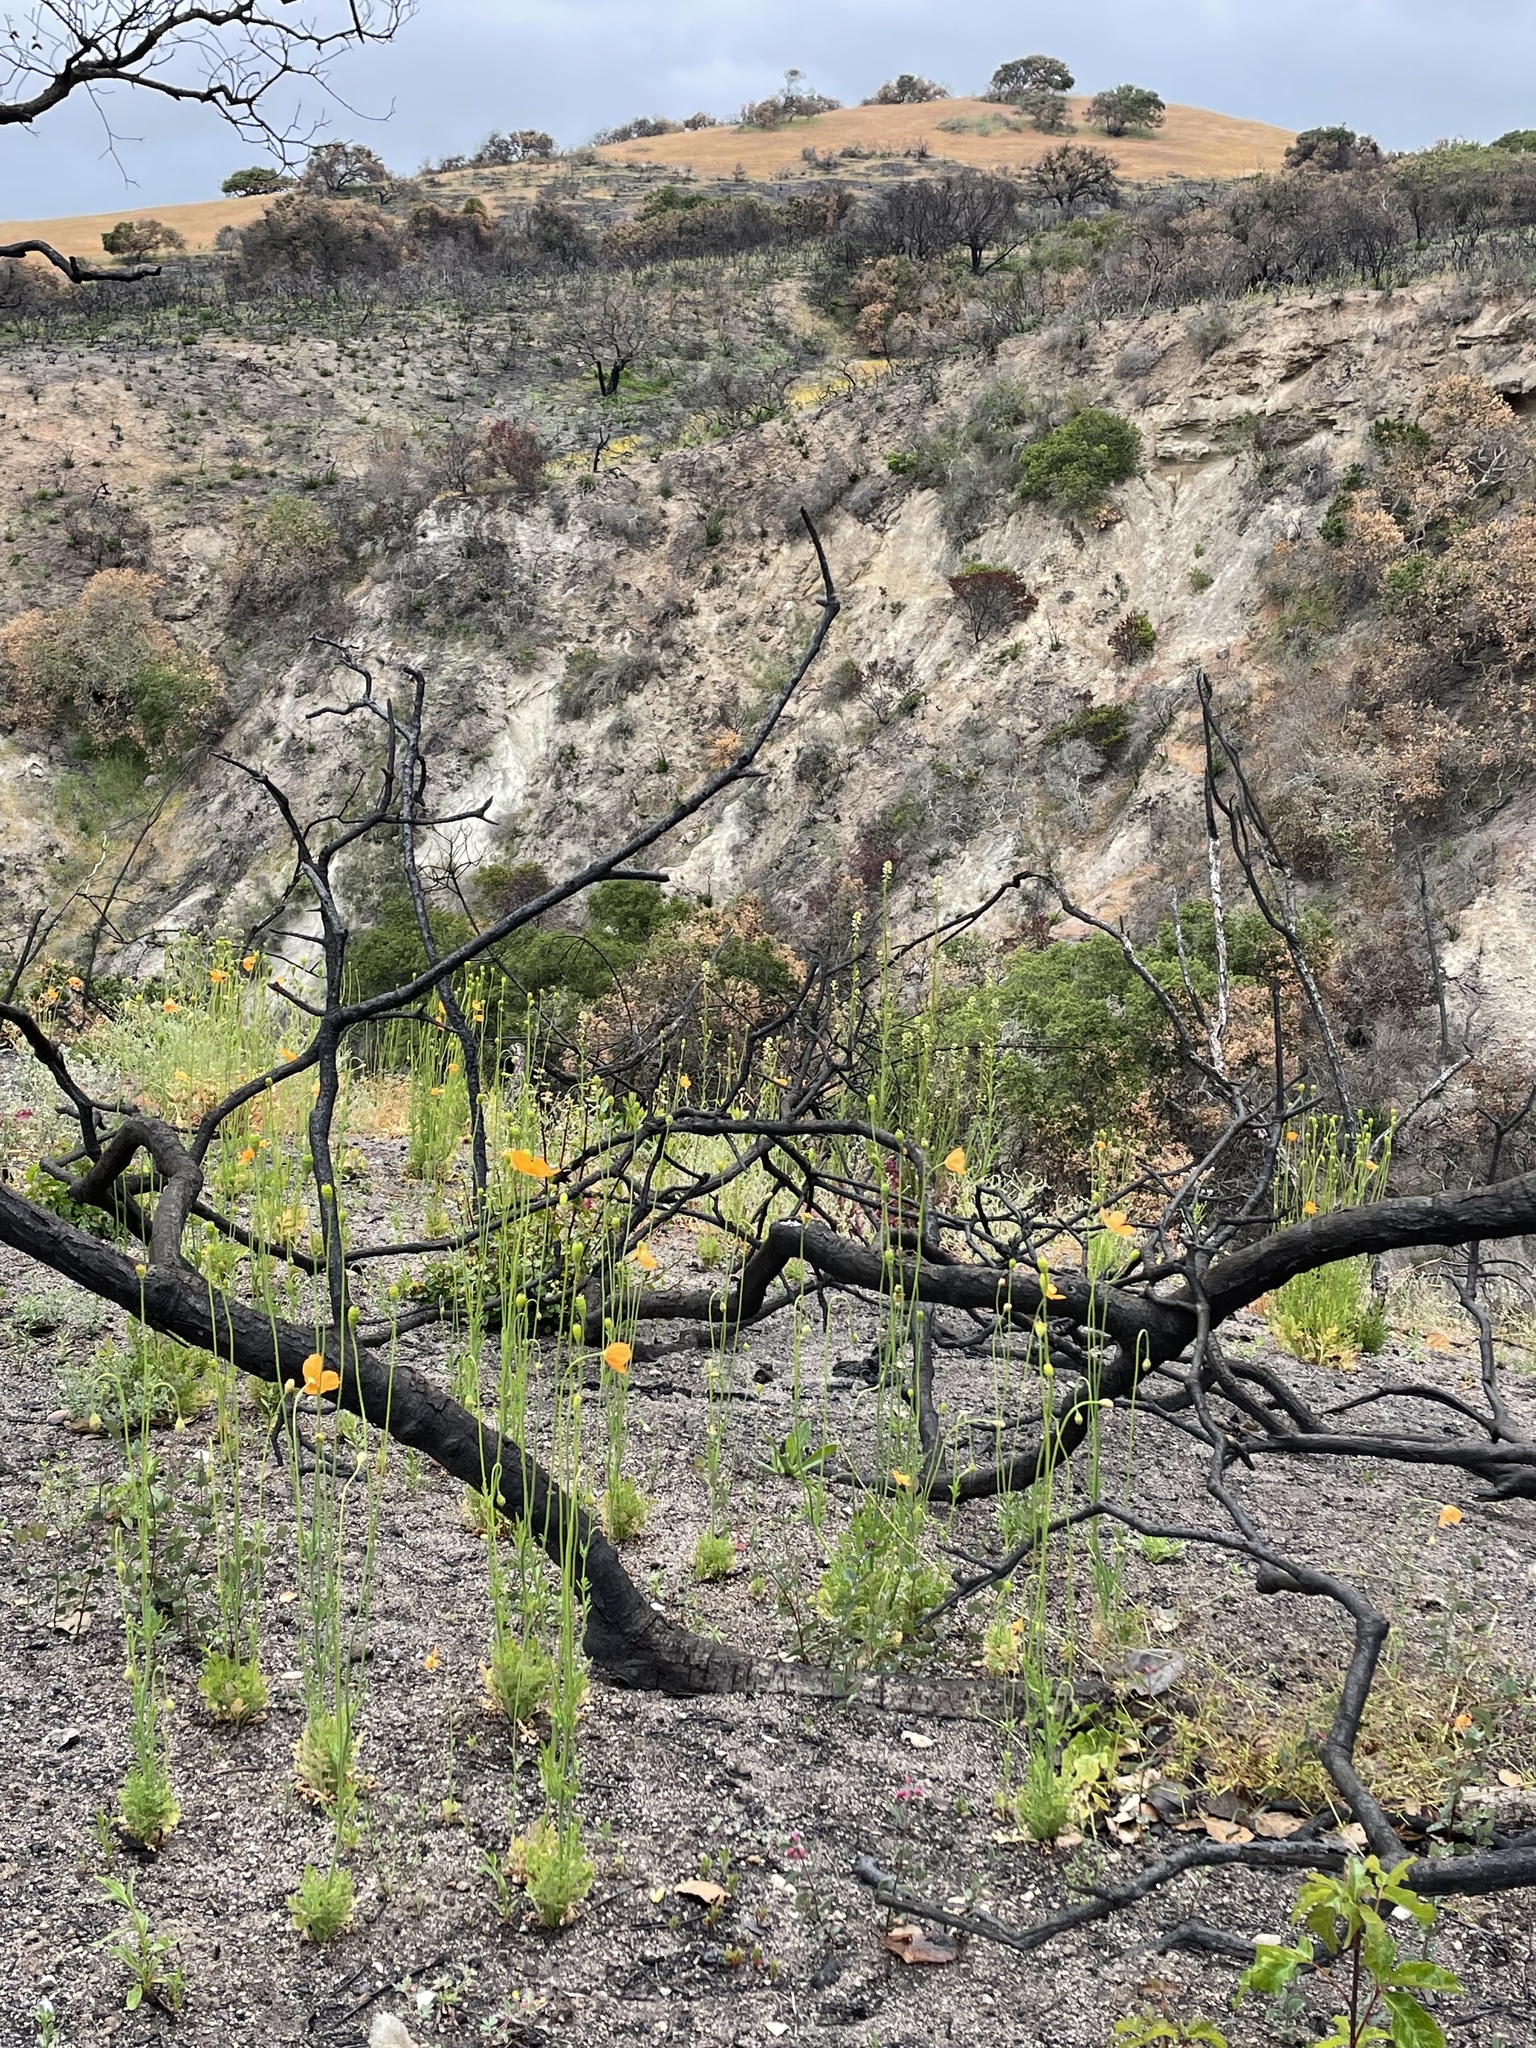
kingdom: Plantae
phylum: Tracheophyta
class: Magnoliopsida
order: Ranunculales
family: Papaveraceae
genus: Papaver
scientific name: Papaver californicum
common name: Fire poppy
